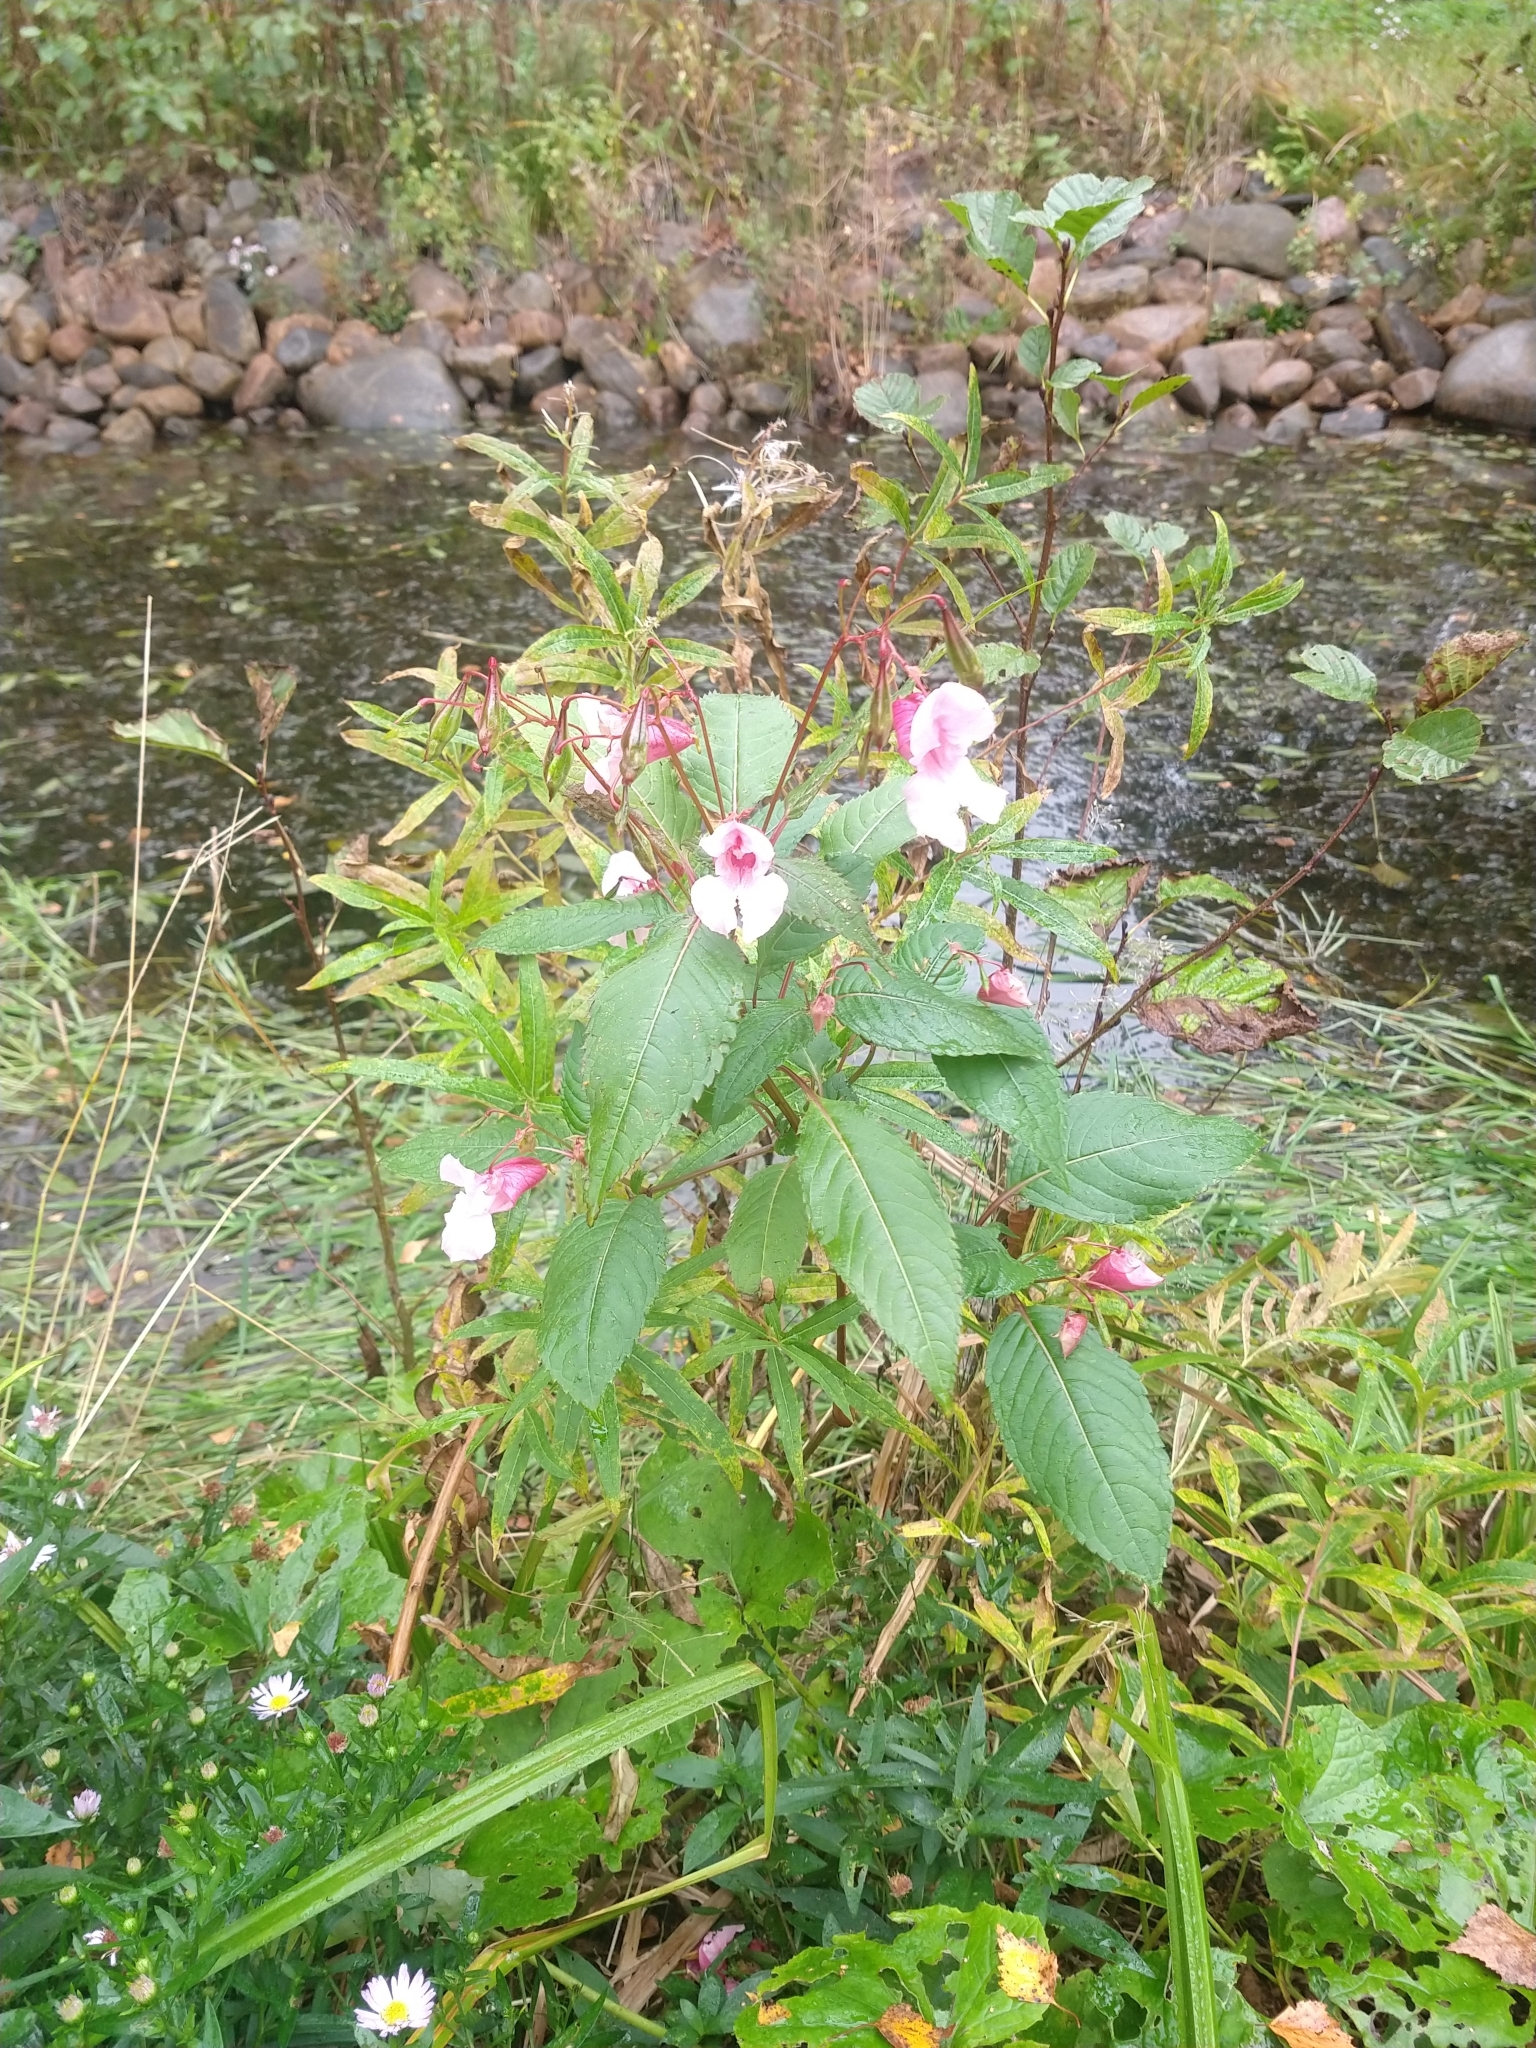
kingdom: Plantae
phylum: Tracheophyta
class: Magnoliopsida
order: Ericales
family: Balsaminaceae
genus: Impatiens
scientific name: Impatiens glandulifera
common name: Himalayan balsam
